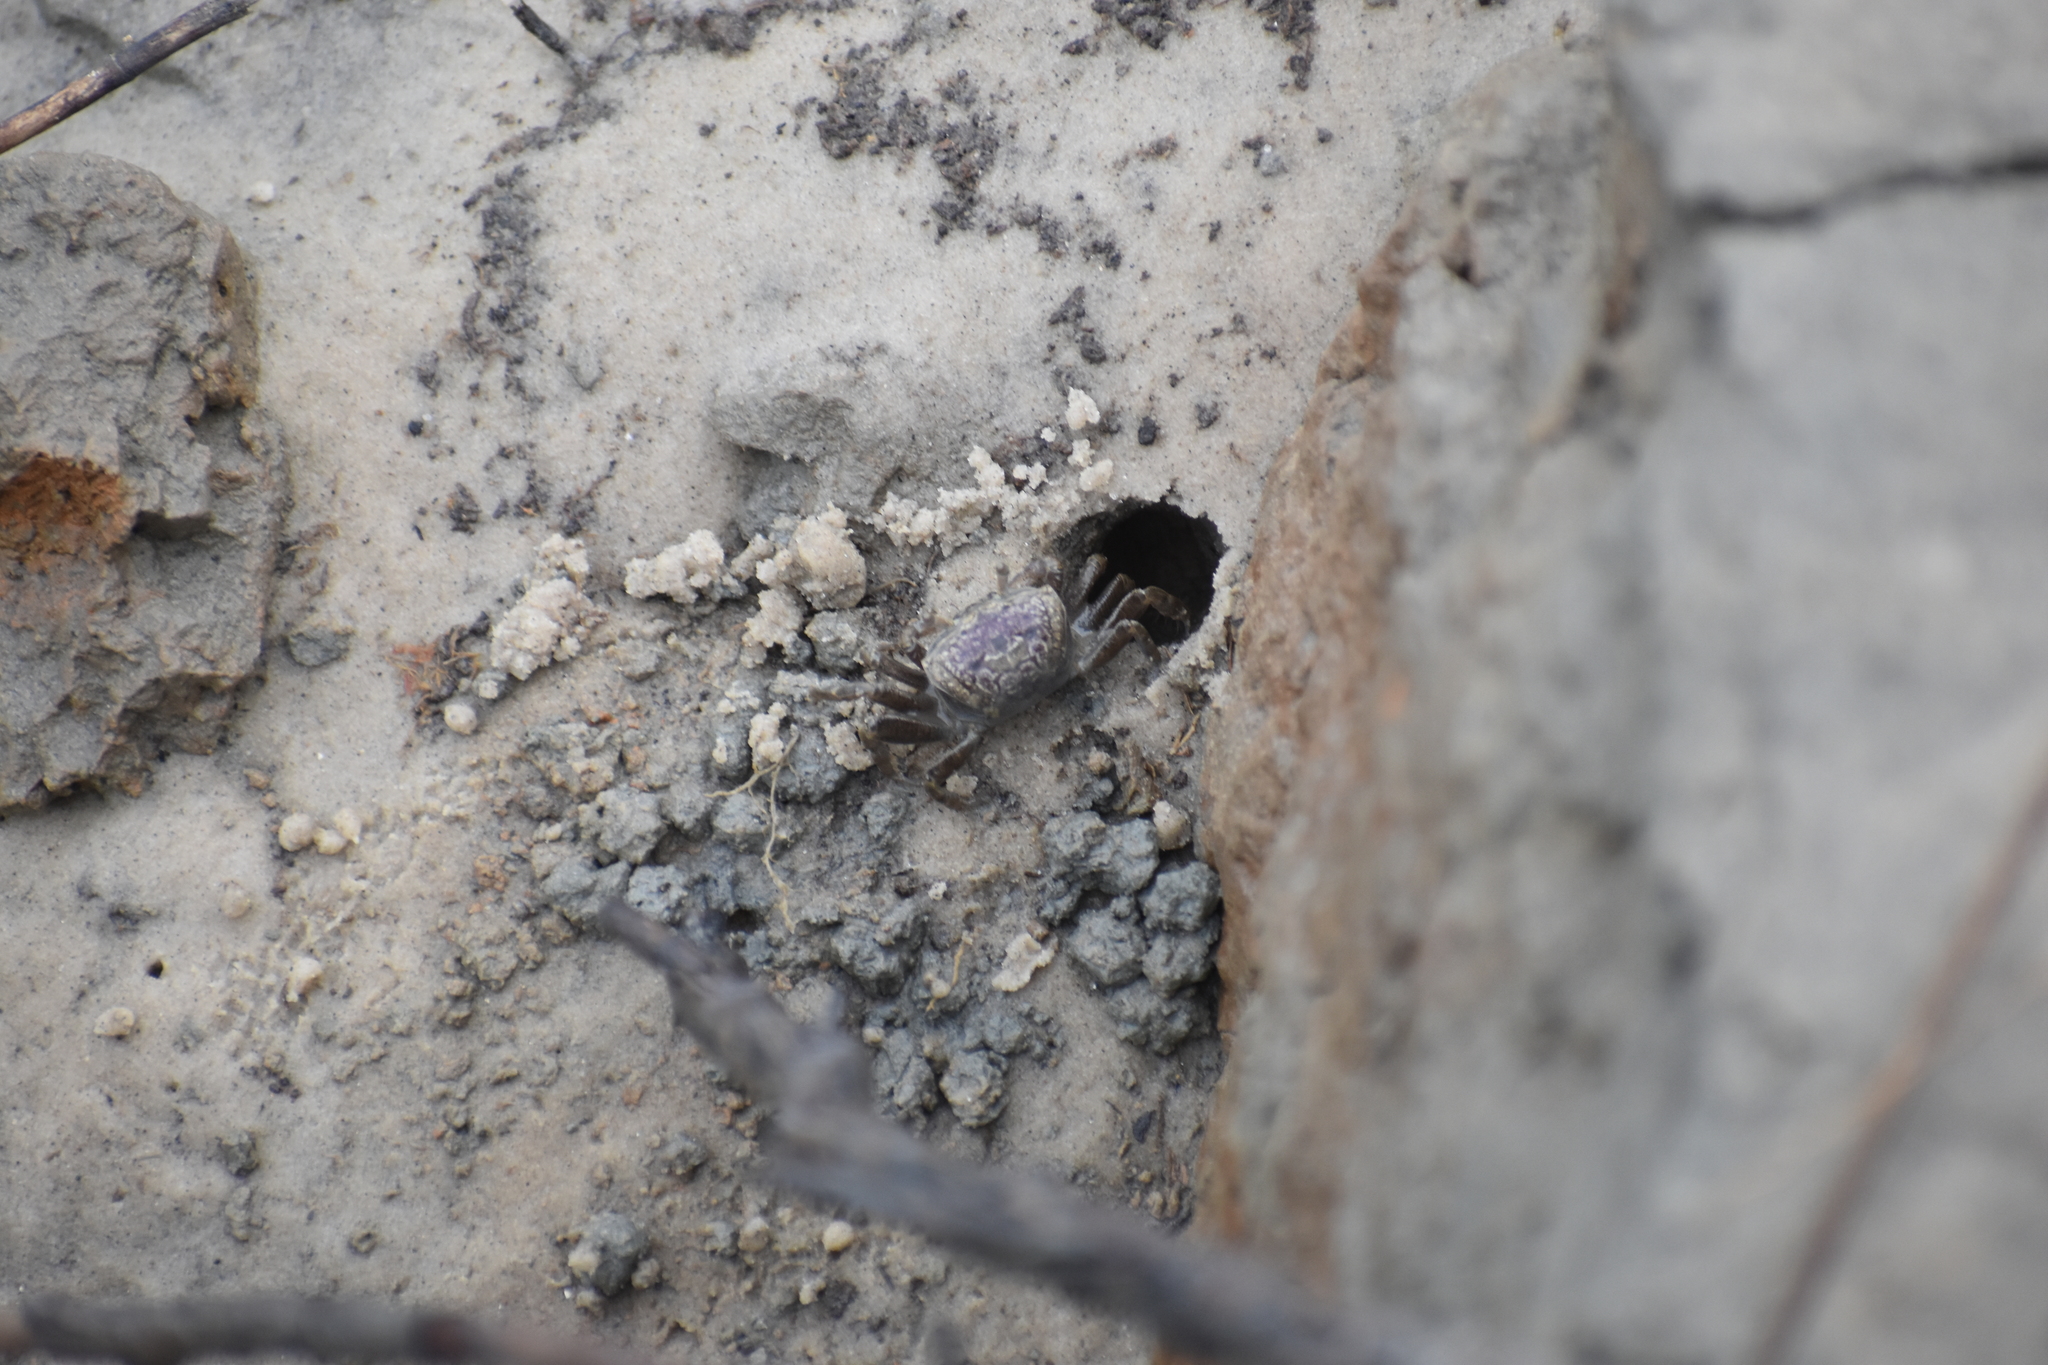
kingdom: Animalia
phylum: Arthropoda
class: Malacostraca
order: Decapoda
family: Ocypodidae
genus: Leptuca
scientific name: Leptuca pugilator
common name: Atlantic sand fiddler crab
